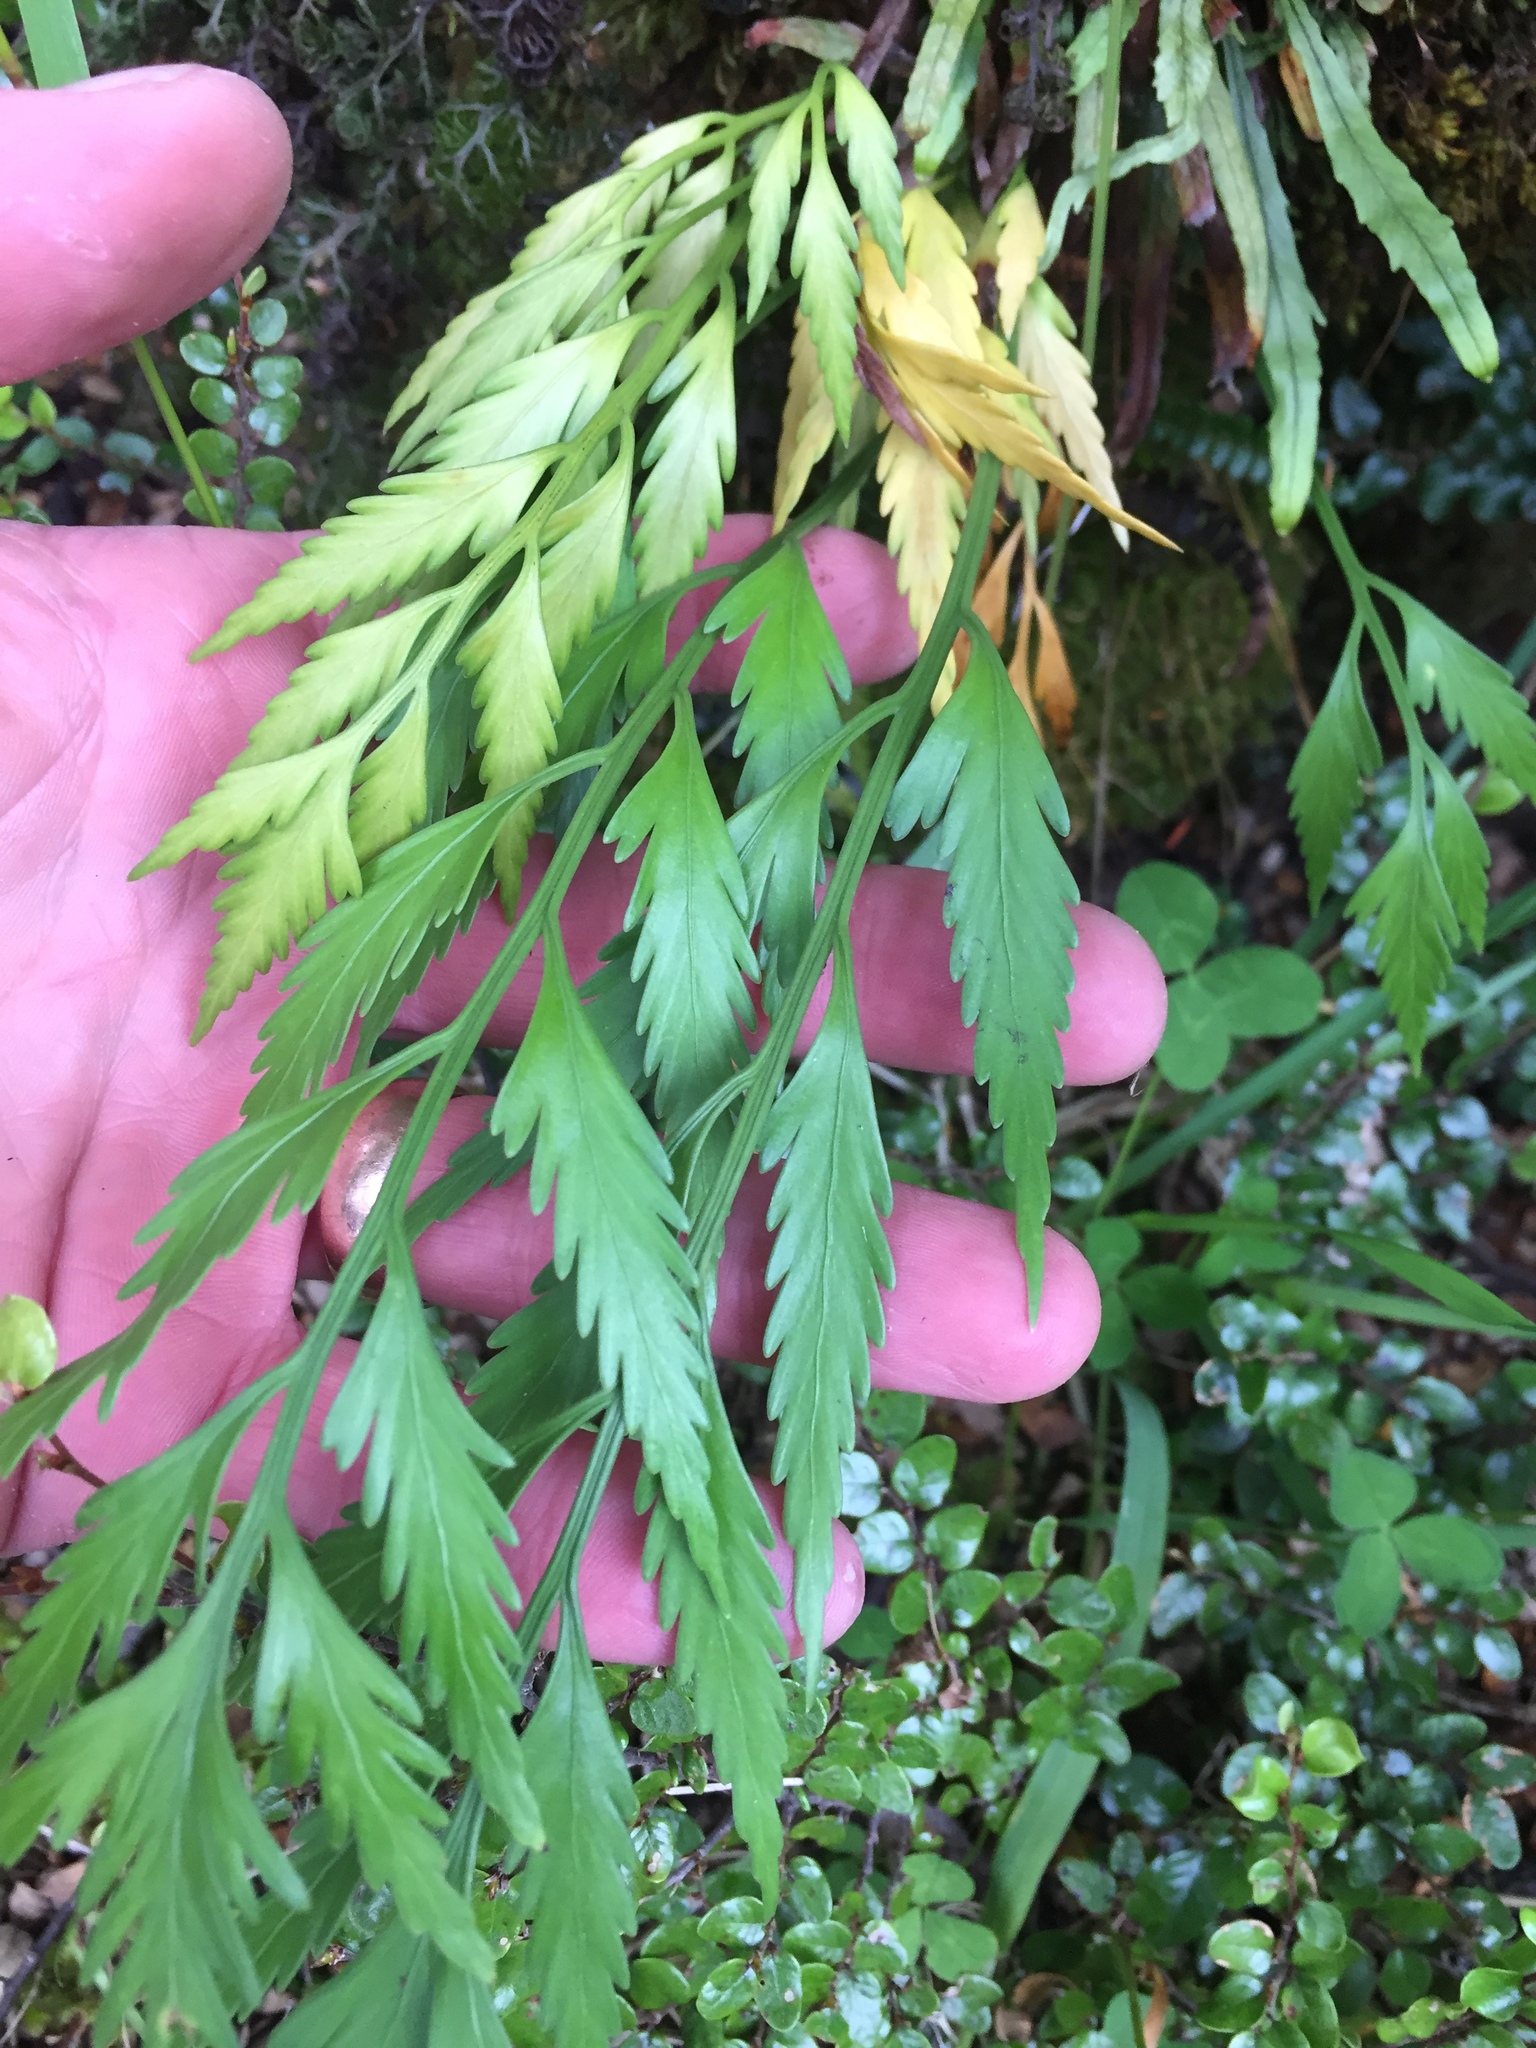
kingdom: Plantae
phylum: Tracheophyta
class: Polypodiopsida
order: Polypodiales
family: Aspleniaceae
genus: Asplenium
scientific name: Asplenium flaccidum
